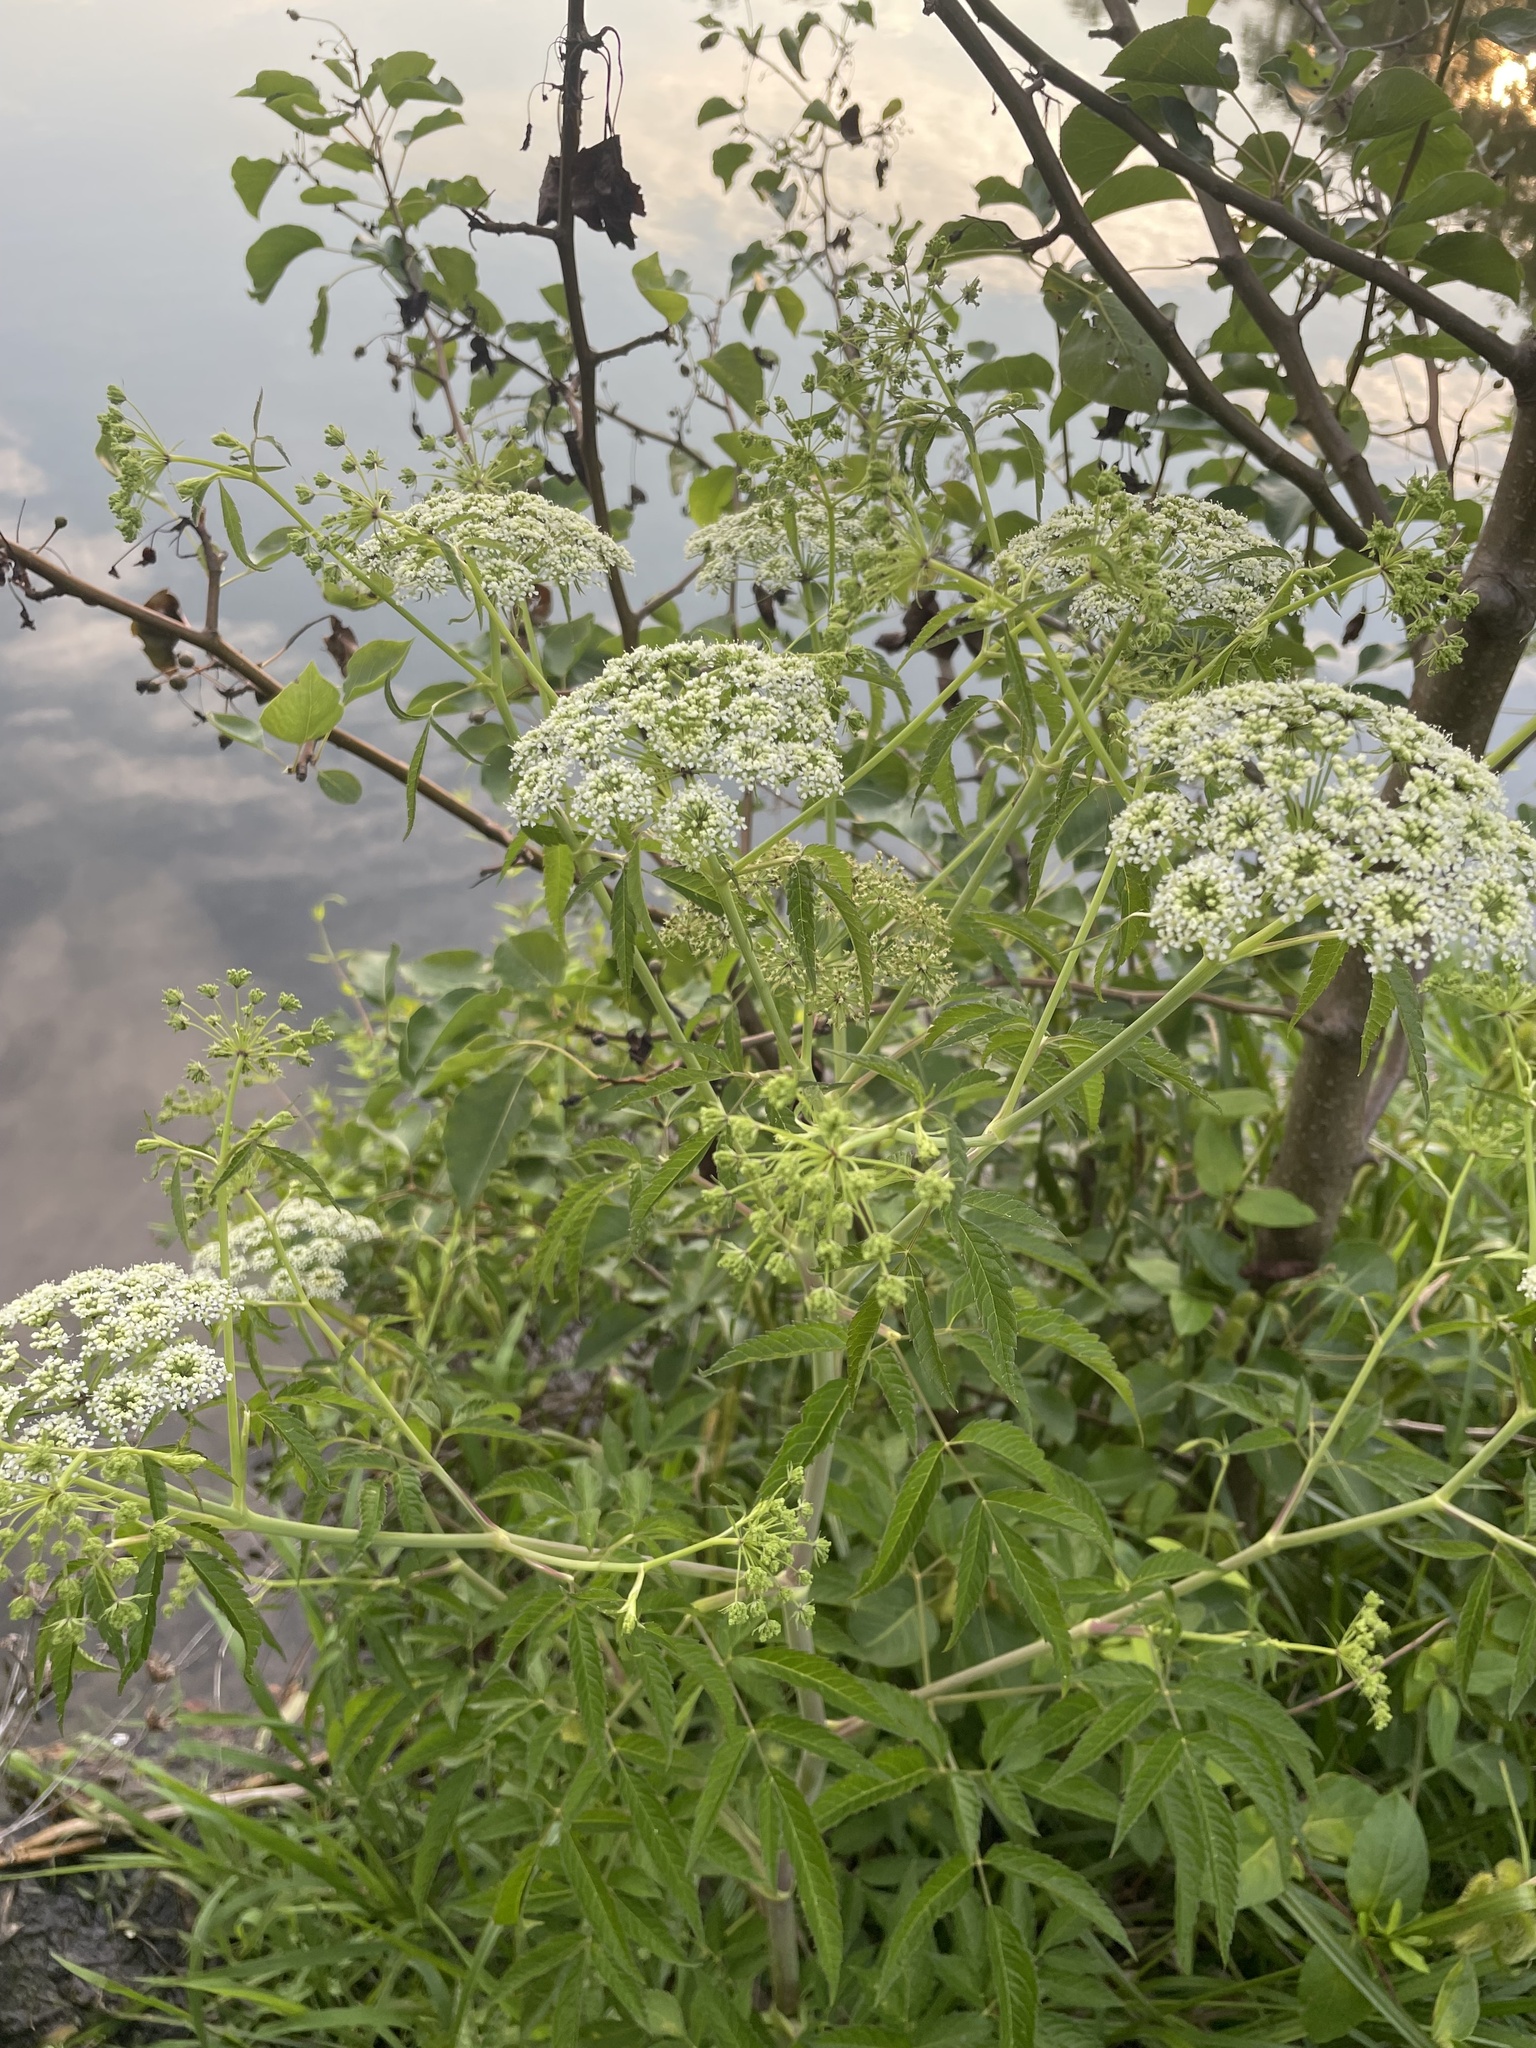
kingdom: Plantae
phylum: Tracheophyta
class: Magnoliopsida
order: Apiales
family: Apiaceae
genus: Cicuta
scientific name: Cicuta maculata
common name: Spotted cowbane
